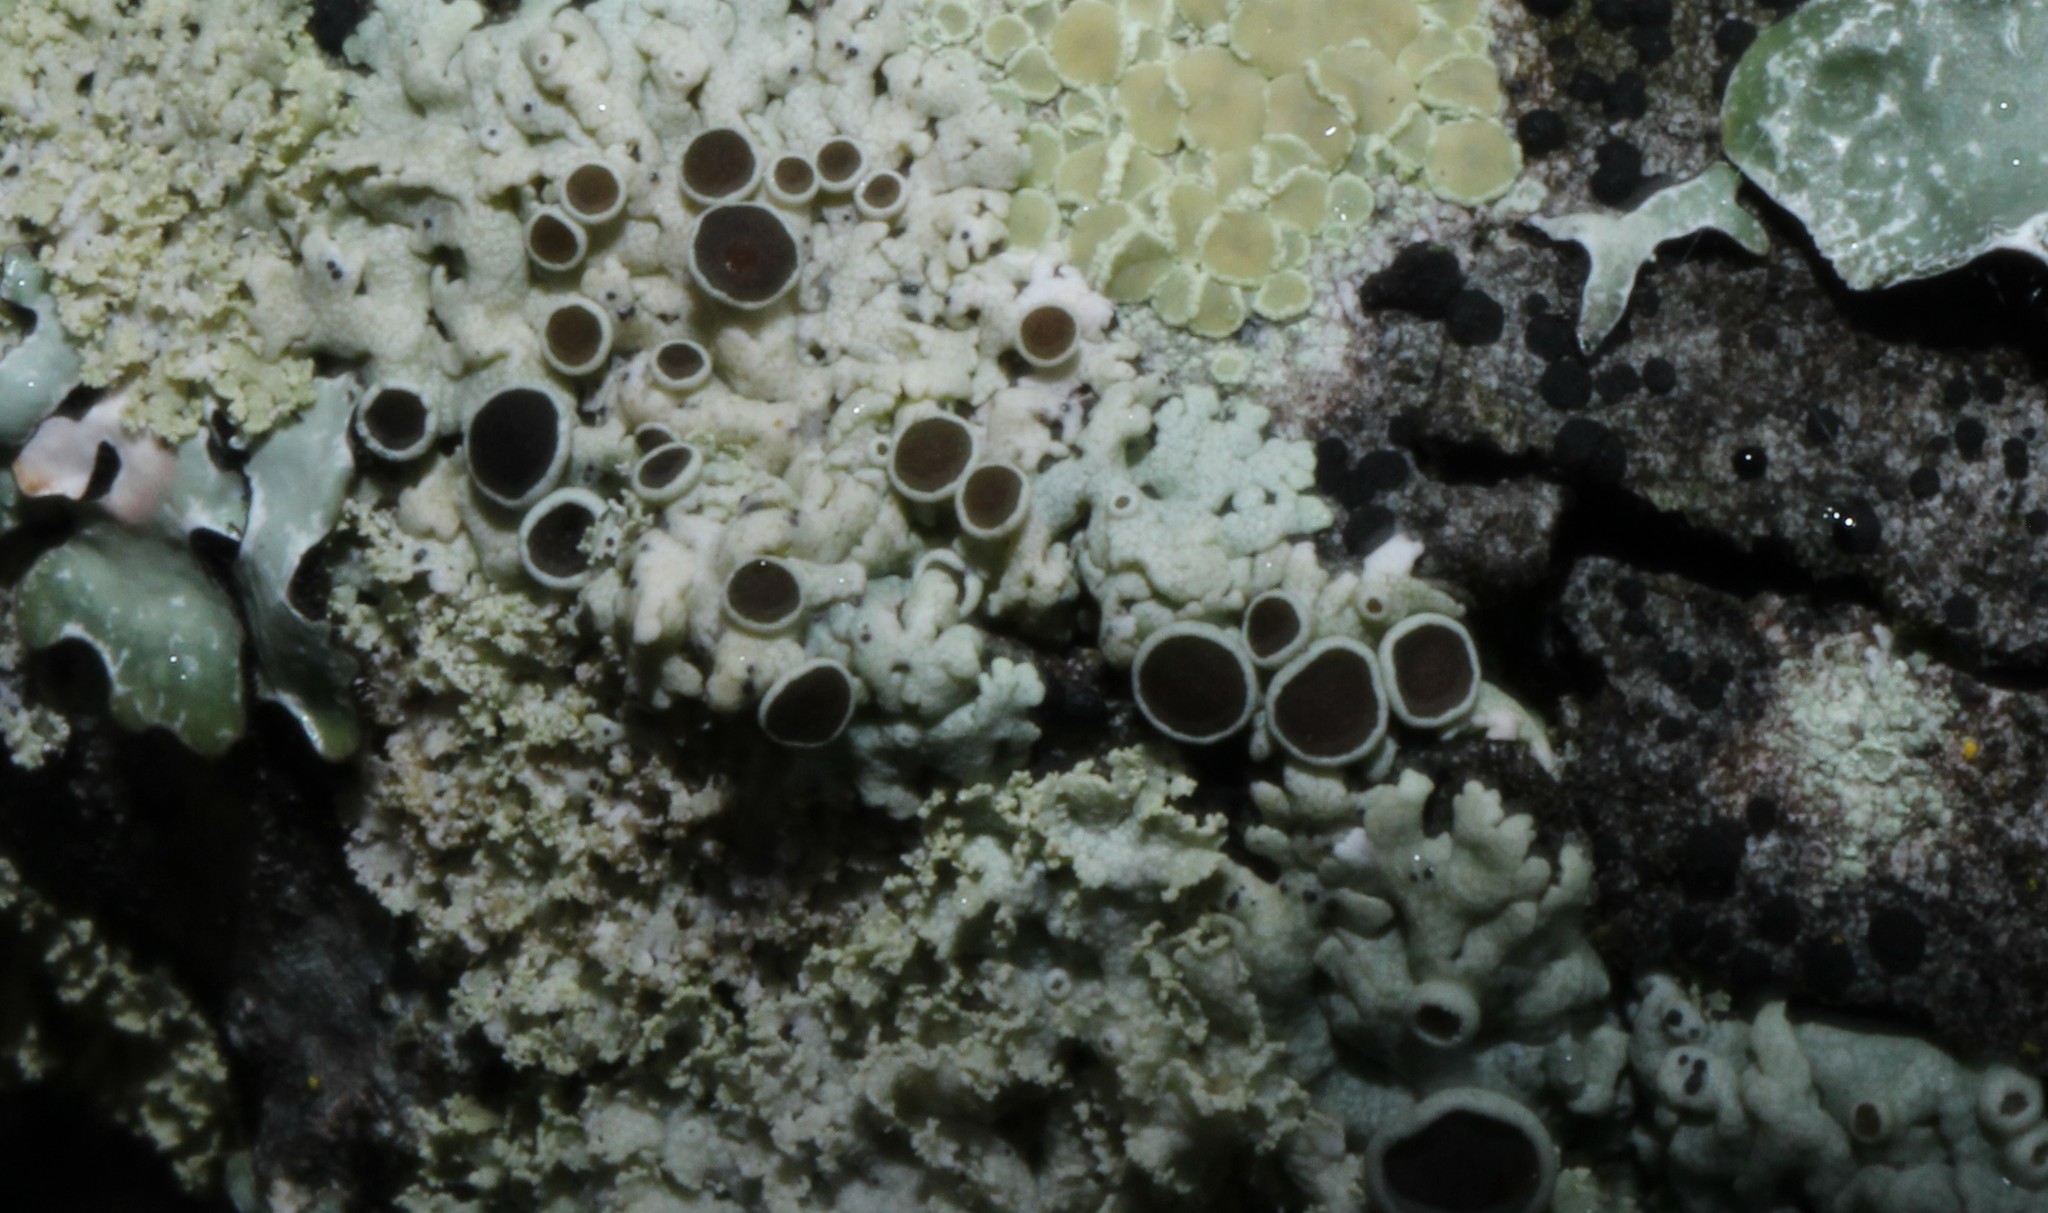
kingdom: Fungi
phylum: Ascomycota
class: Lecanoromycetes
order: Caliciales
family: Physciaceae
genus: Physcia
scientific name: Physcia stellaris
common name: Star rosette lichen
